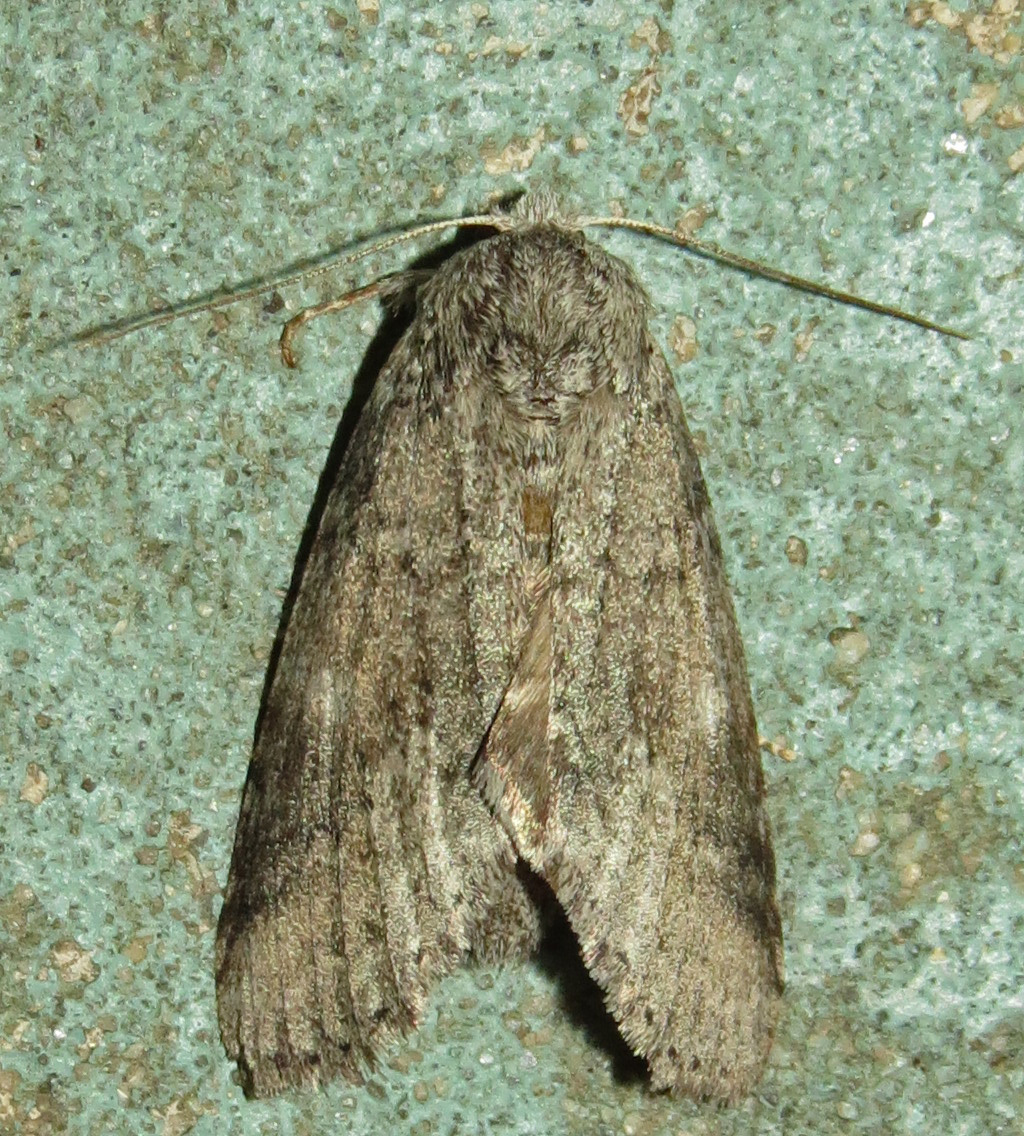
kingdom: Animalia
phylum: Arthropoda
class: Insecta
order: Lepidoptera
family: Notodontidae
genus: Lochmaeus
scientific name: Lochmaeus manteo
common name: Variable oakleaf caterpillar moth
